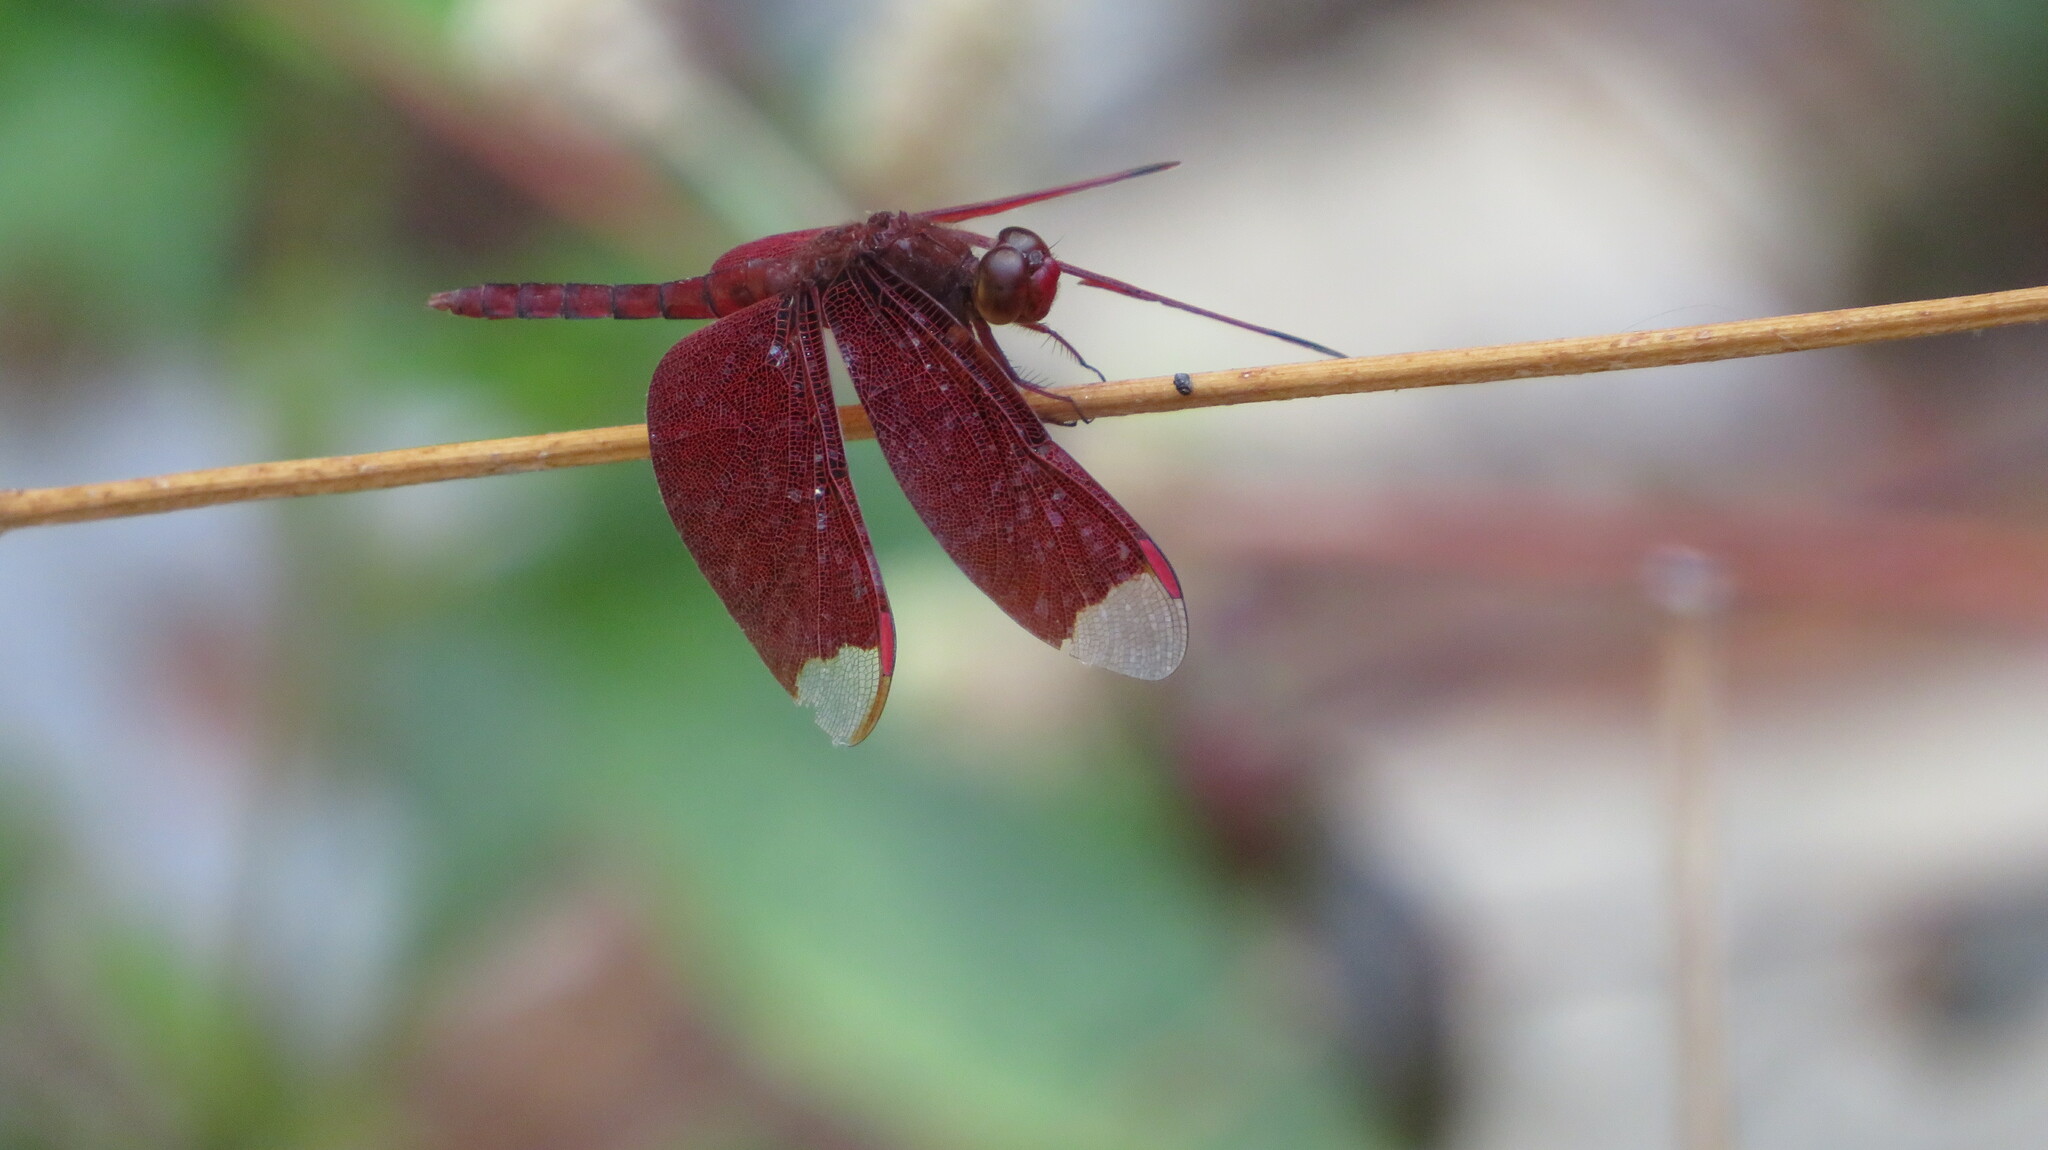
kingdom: Animalia
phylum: Arthropoda
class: Insecta
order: Odonata
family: Libellulidae
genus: Neurothemis
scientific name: Neurothemis fulvia
